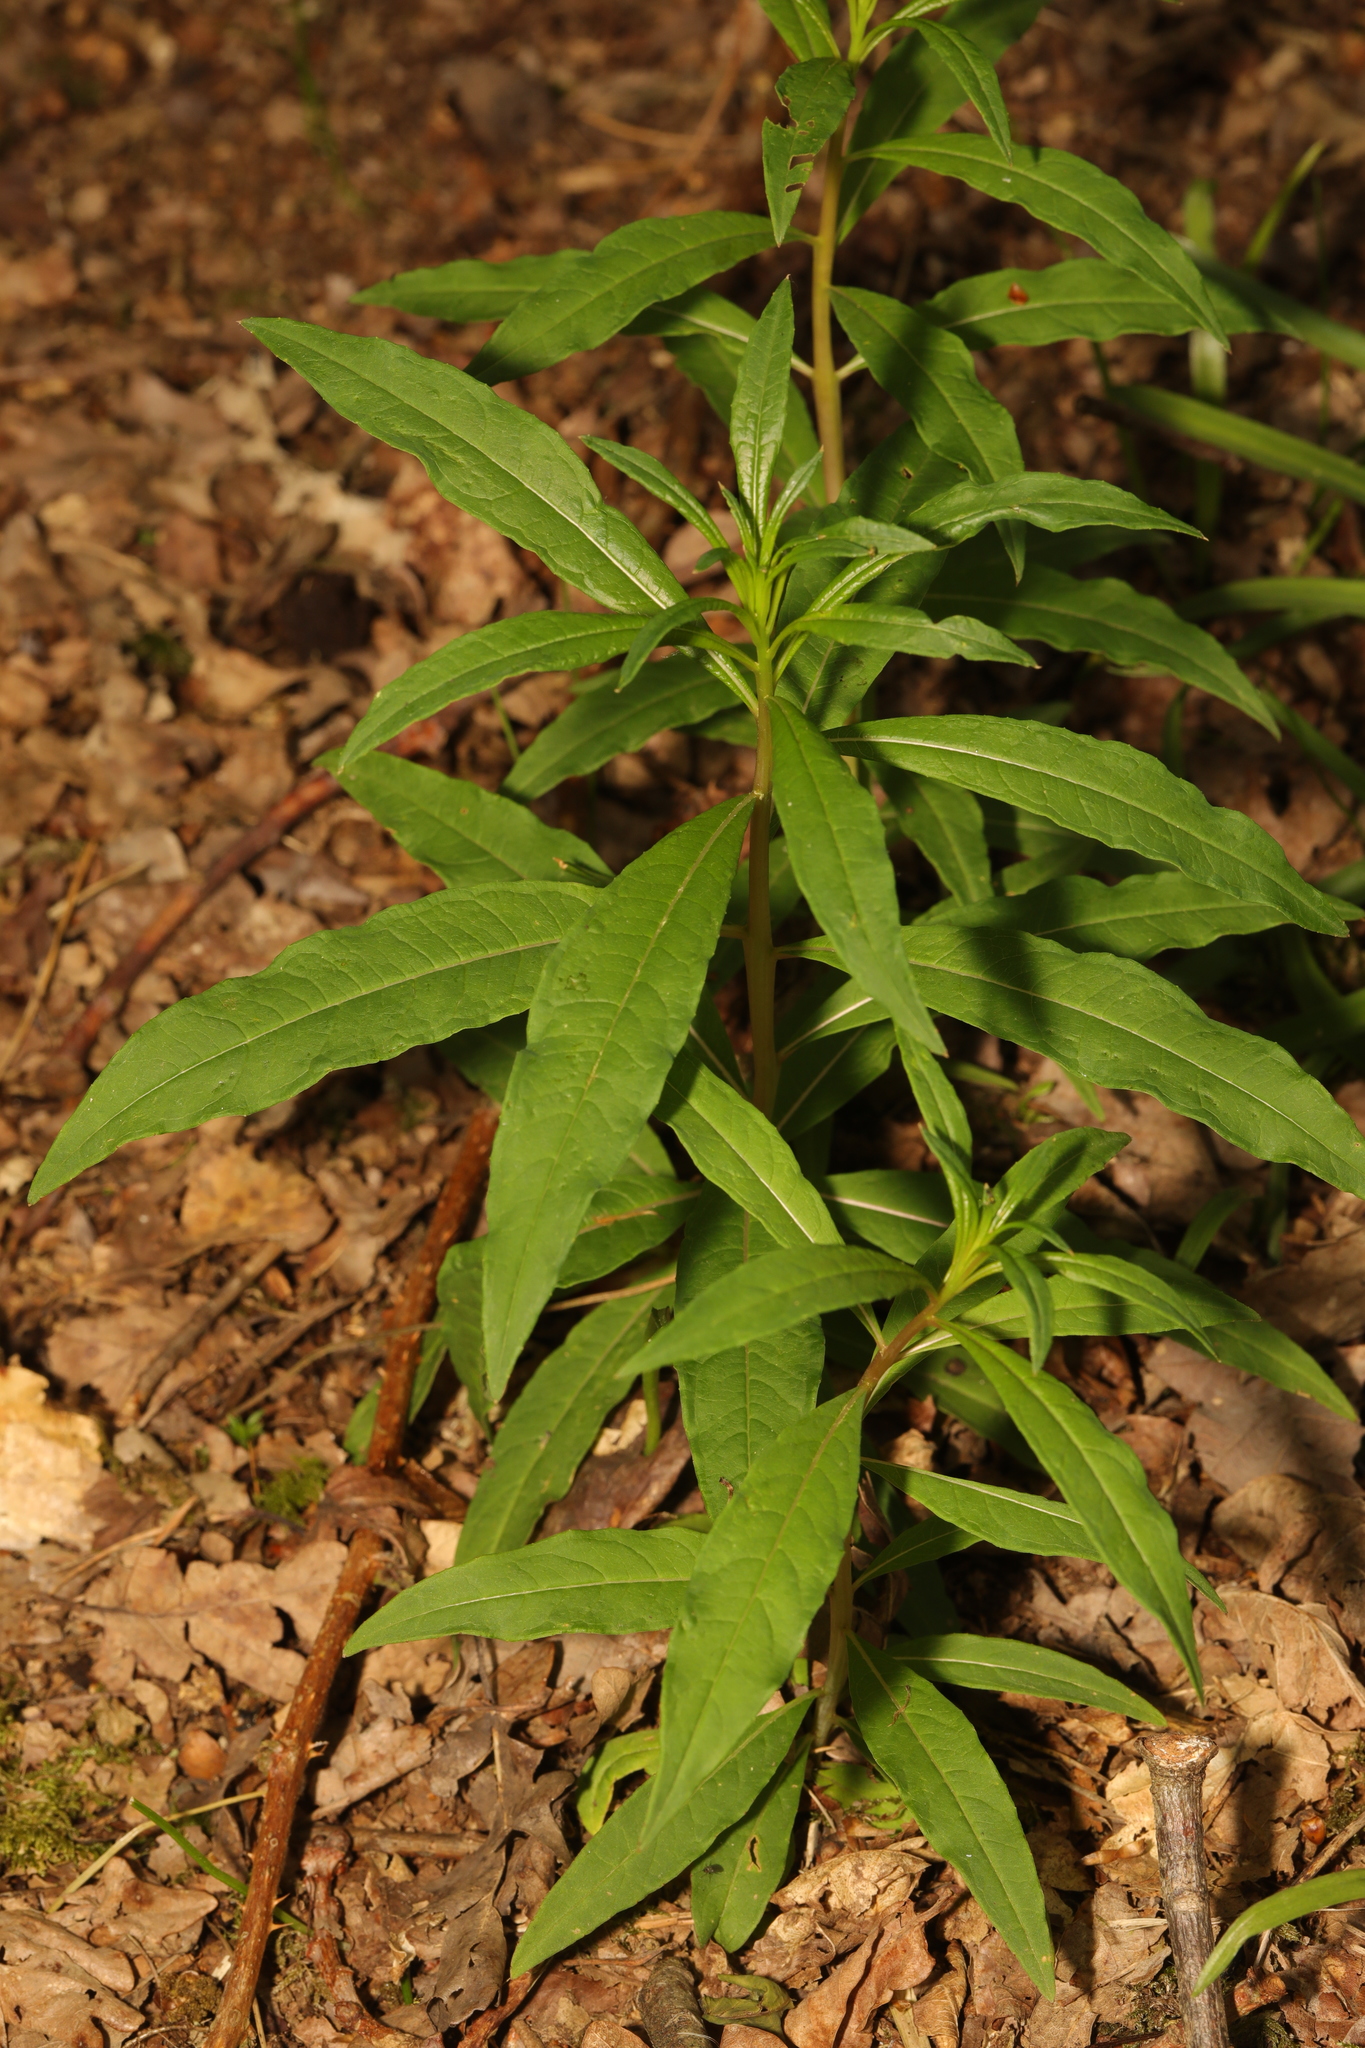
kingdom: Plantae
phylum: Tracheophyta
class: Magnoliopsida
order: Myrtales
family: Onagraceae
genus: Chamaenerion
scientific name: Chamaenerion angustifolium
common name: Fireweed
